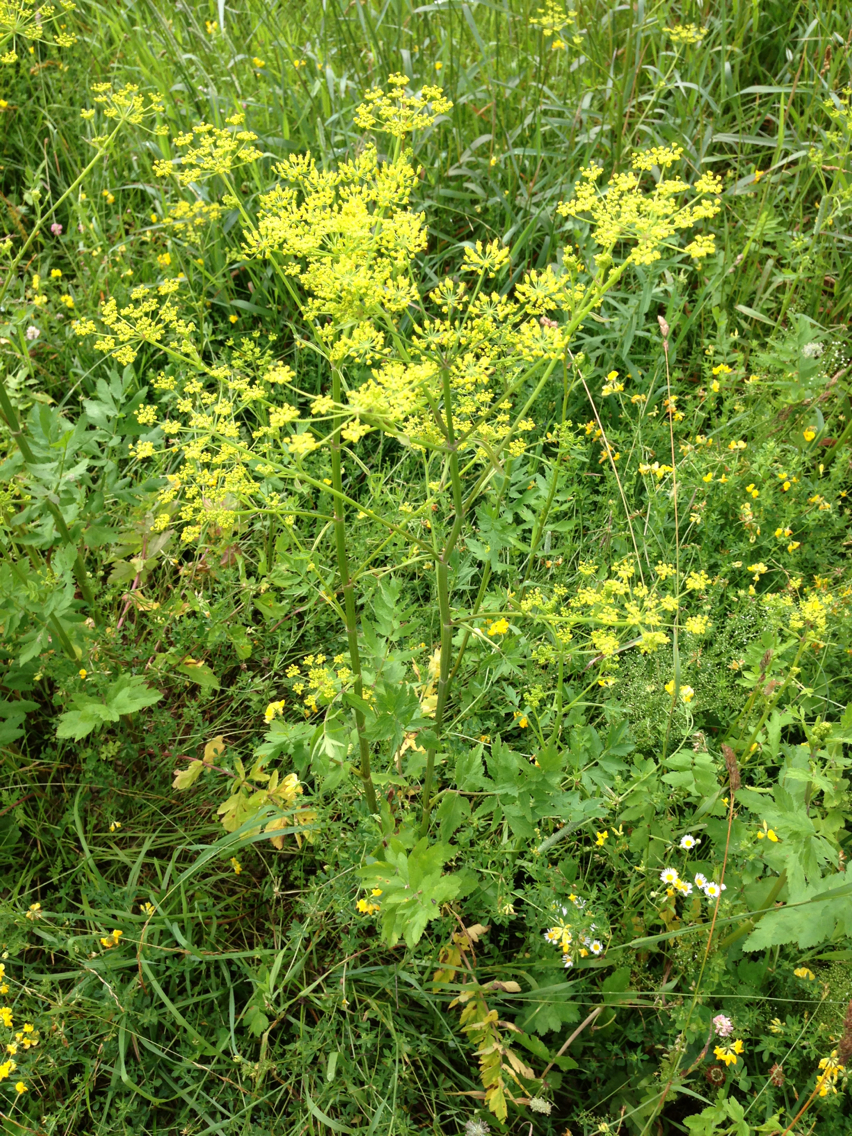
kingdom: Plantae
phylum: Tracheophyta
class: Magnoliopsida
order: Apiales
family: Apiaceae
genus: Pastinaca
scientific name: Pastinaca sativa
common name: Wild parsnip
